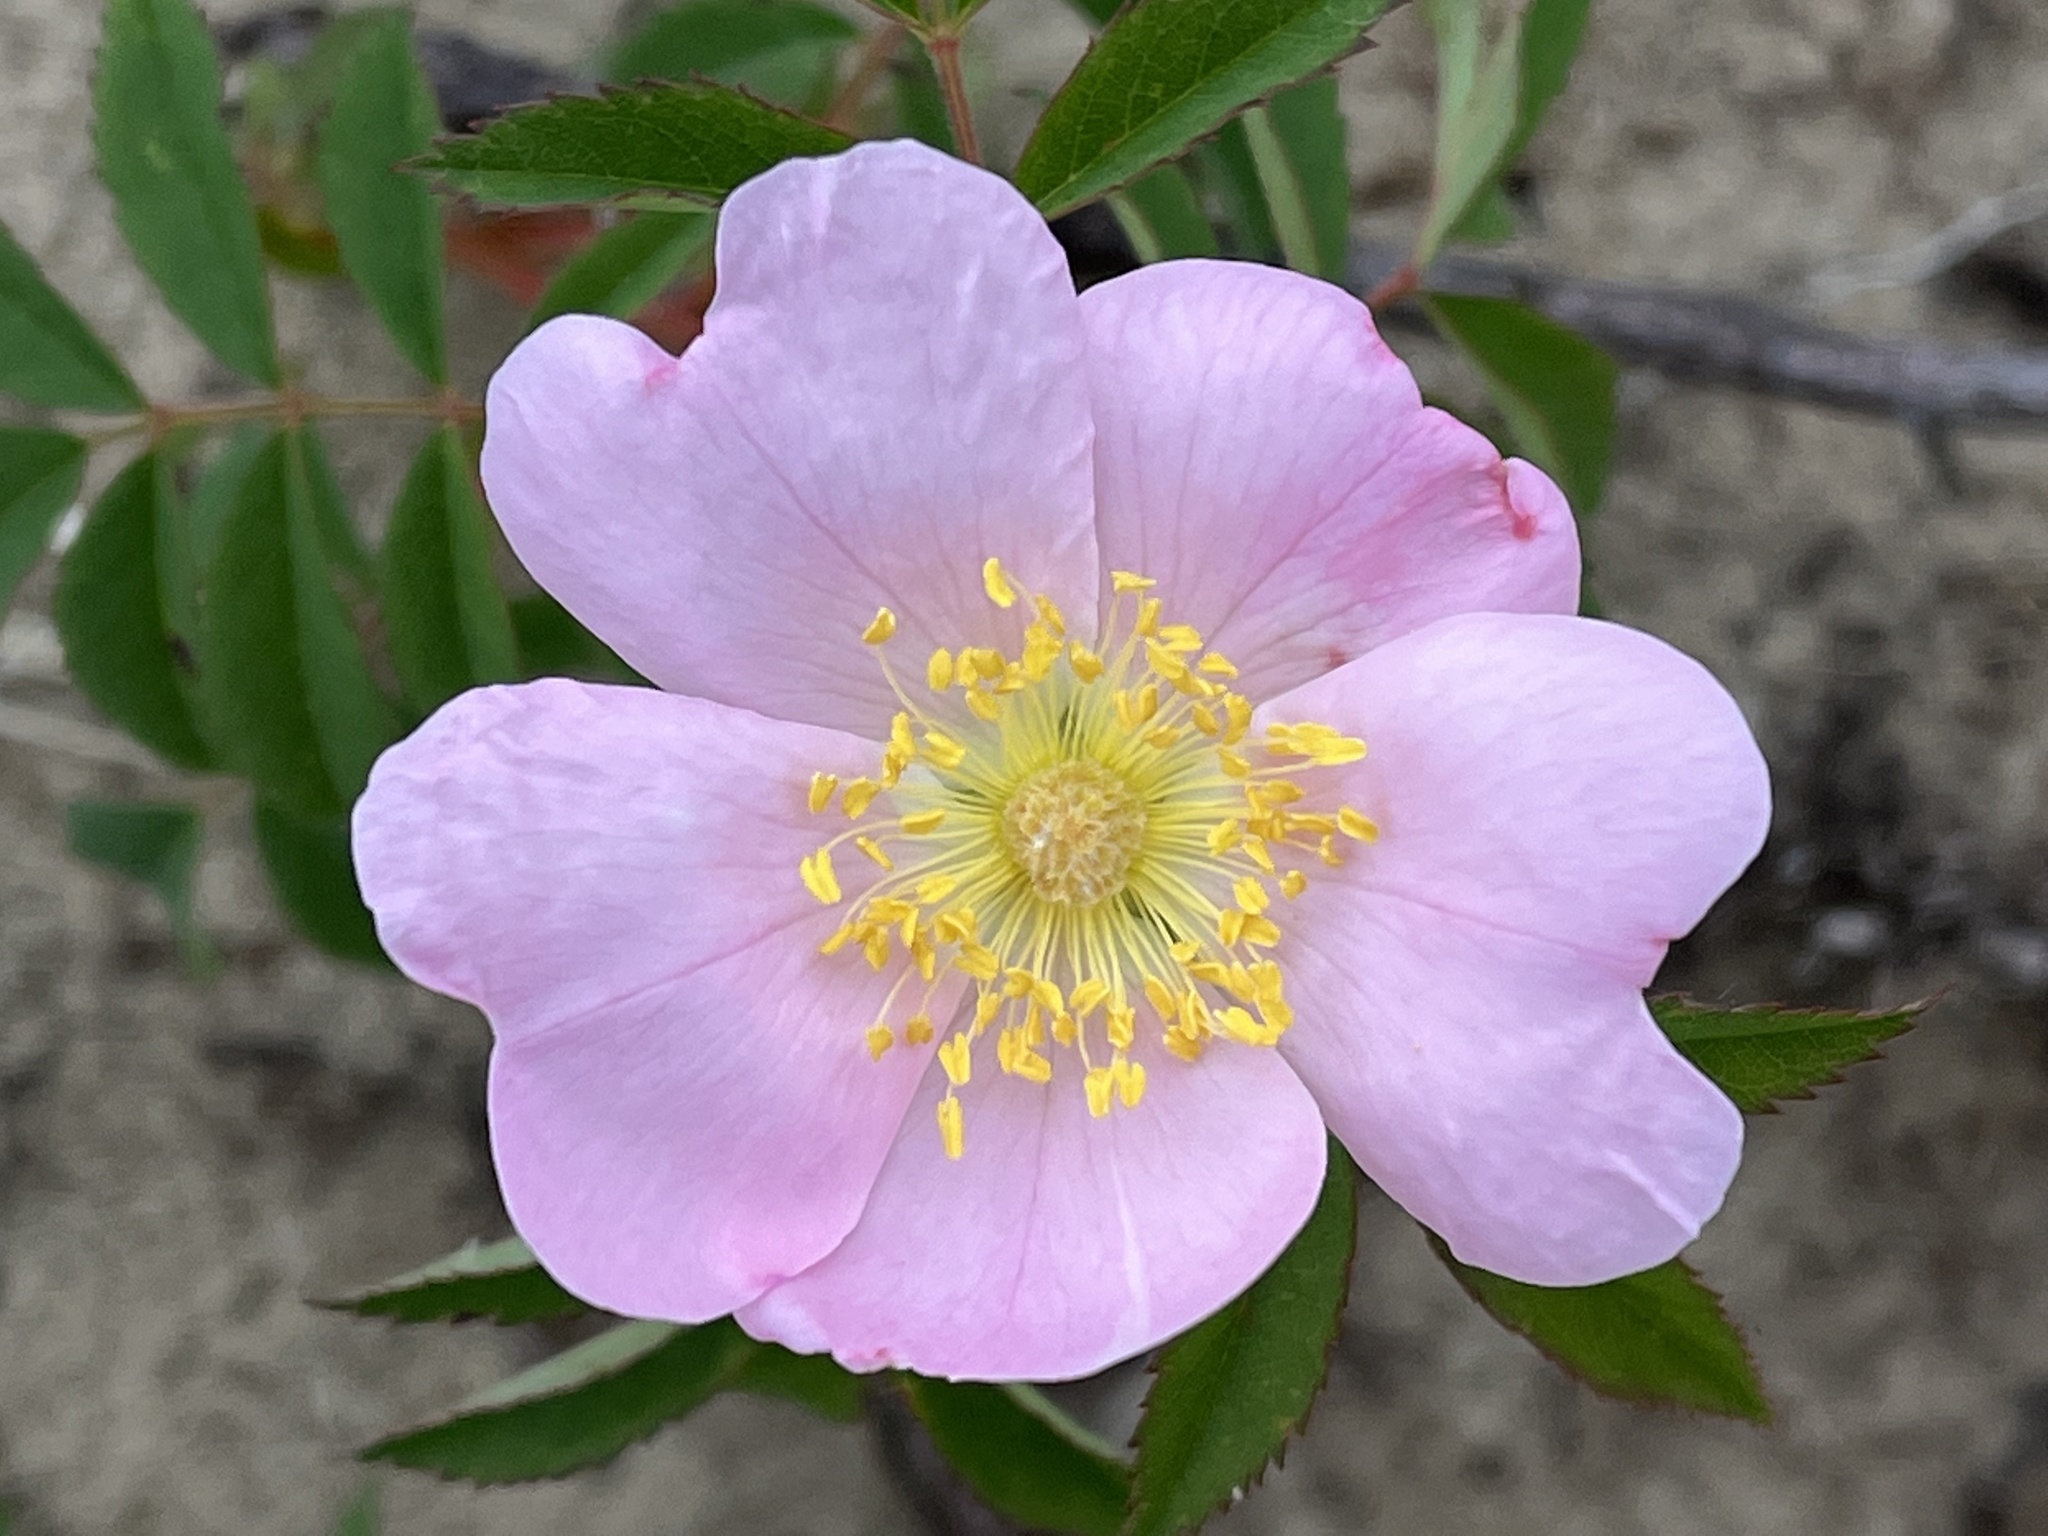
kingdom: Plantae
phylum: Tracheophyta
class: Magnoliopsida
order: Rosales
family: Rosaceae
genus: Rosa
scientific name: Rosa blanda
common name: Smooth rose
